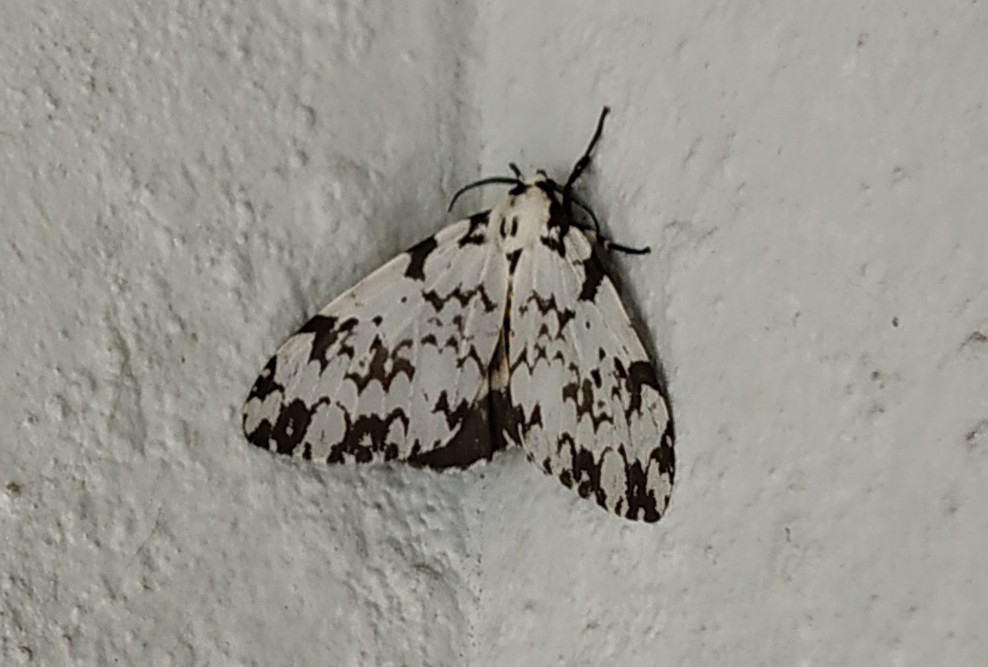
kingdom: Animalia
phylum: Arthropoda
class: Insecta
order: Lepidoptera
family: Erebidae
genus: Lymantria
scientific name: Lymantria monacha
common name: Black arches
